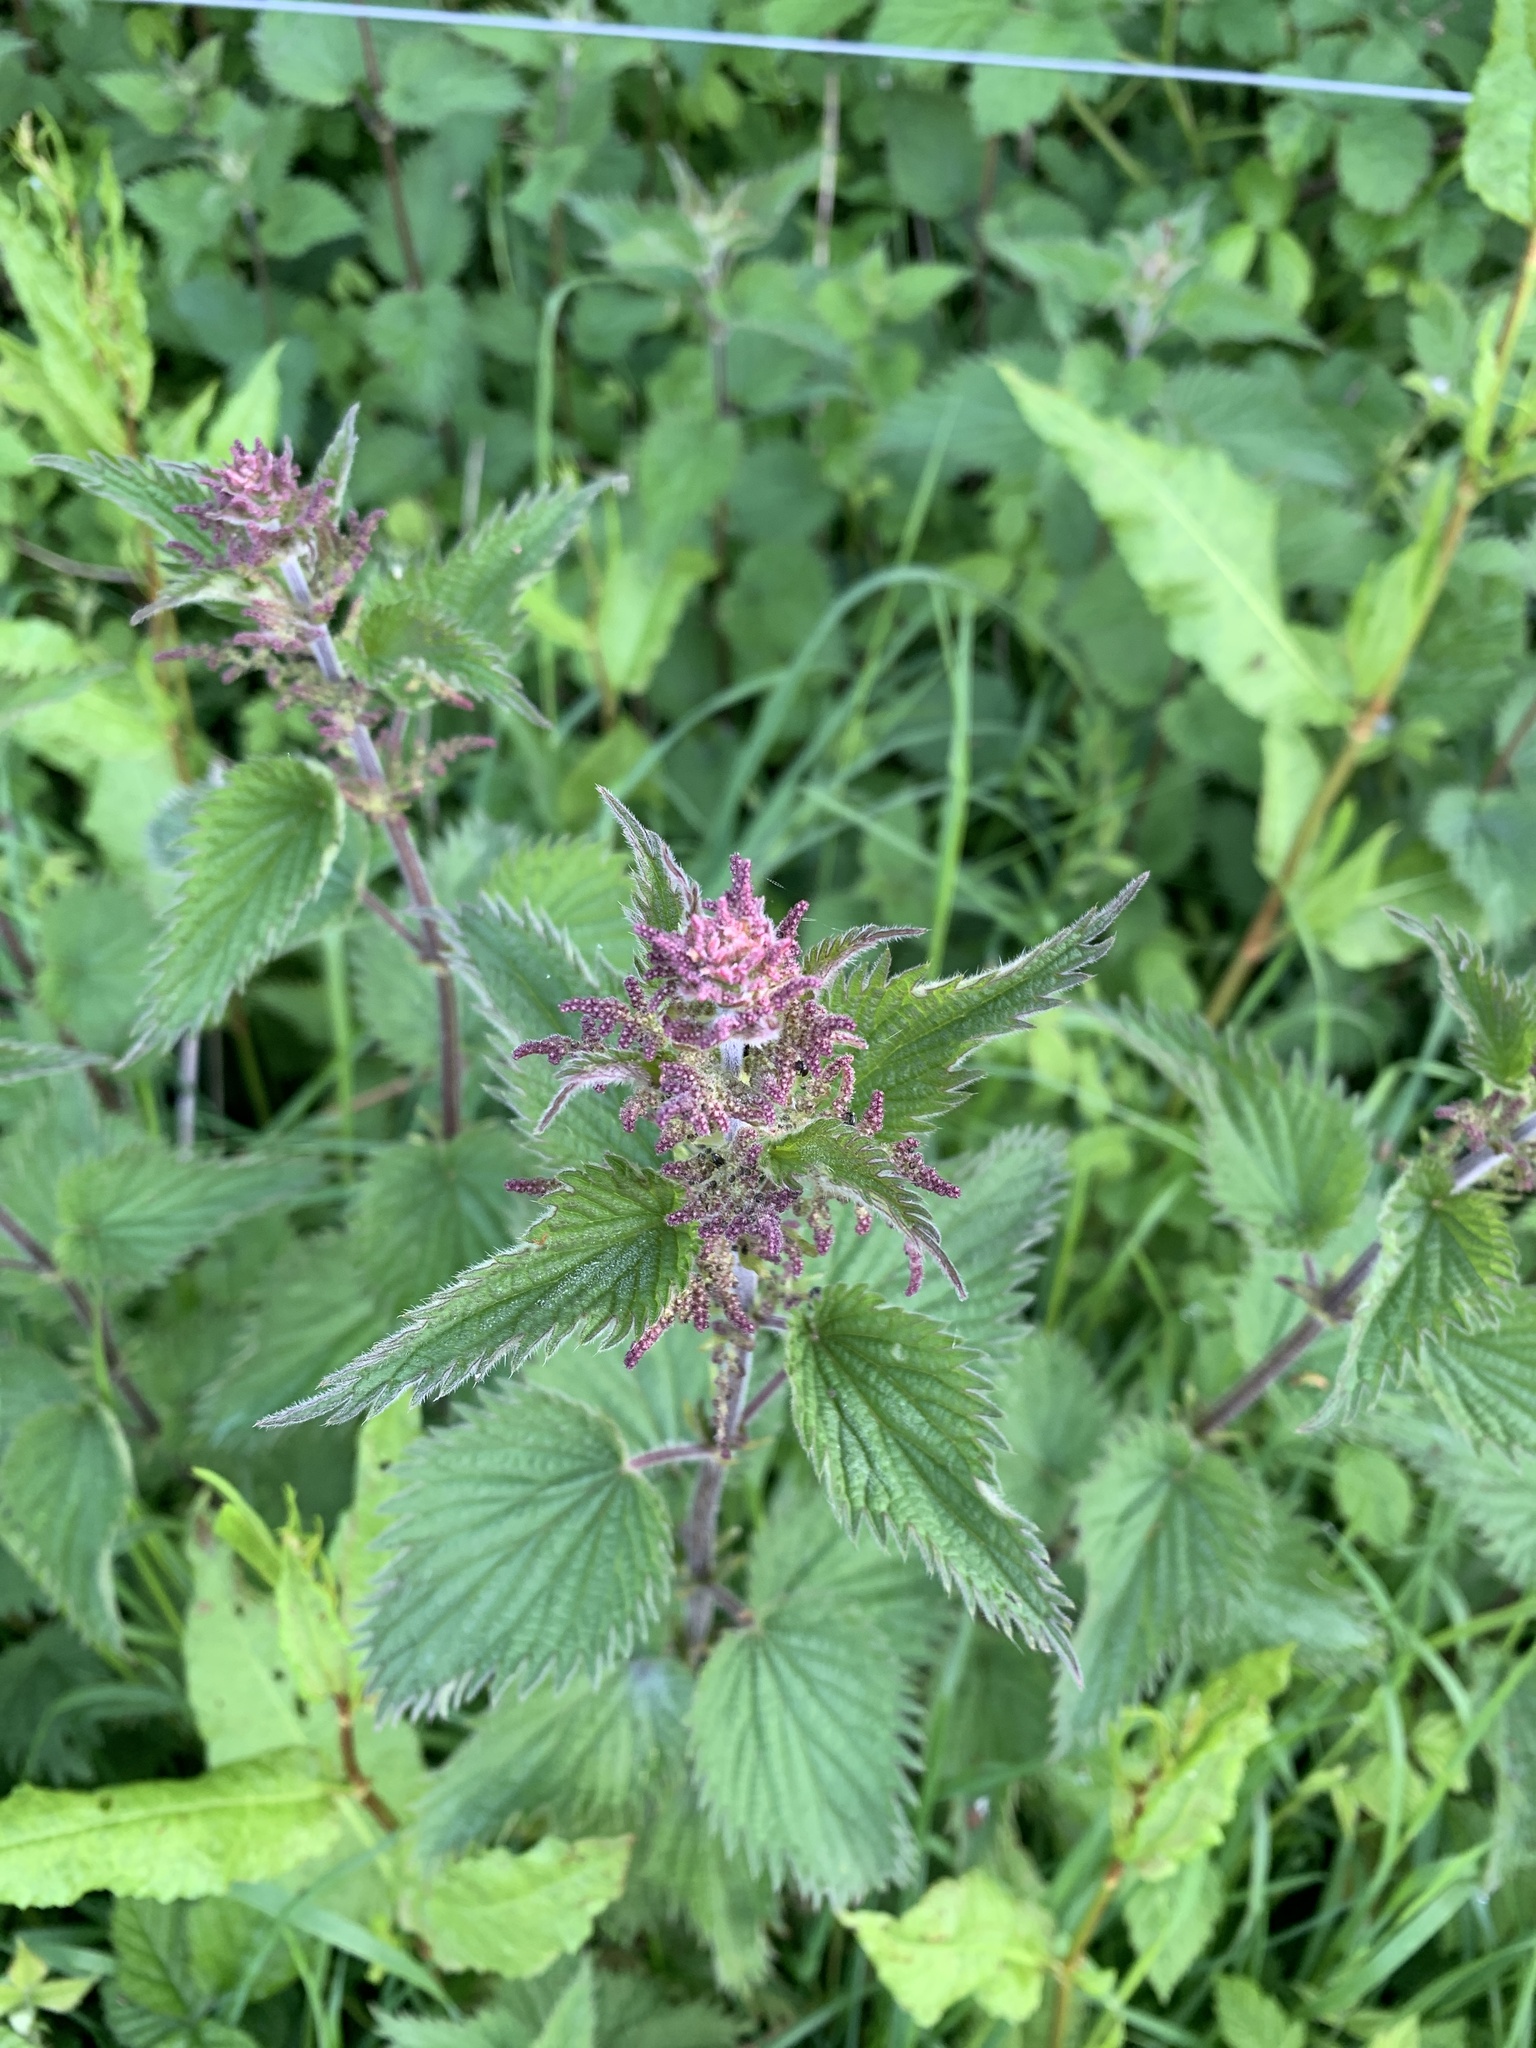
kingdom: Plantae
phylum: Tracheophyta
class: Magnoliopsida
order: Rosales
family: Urticaceae
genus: Urtica
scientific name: Urtica dioica
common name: Common nettle
